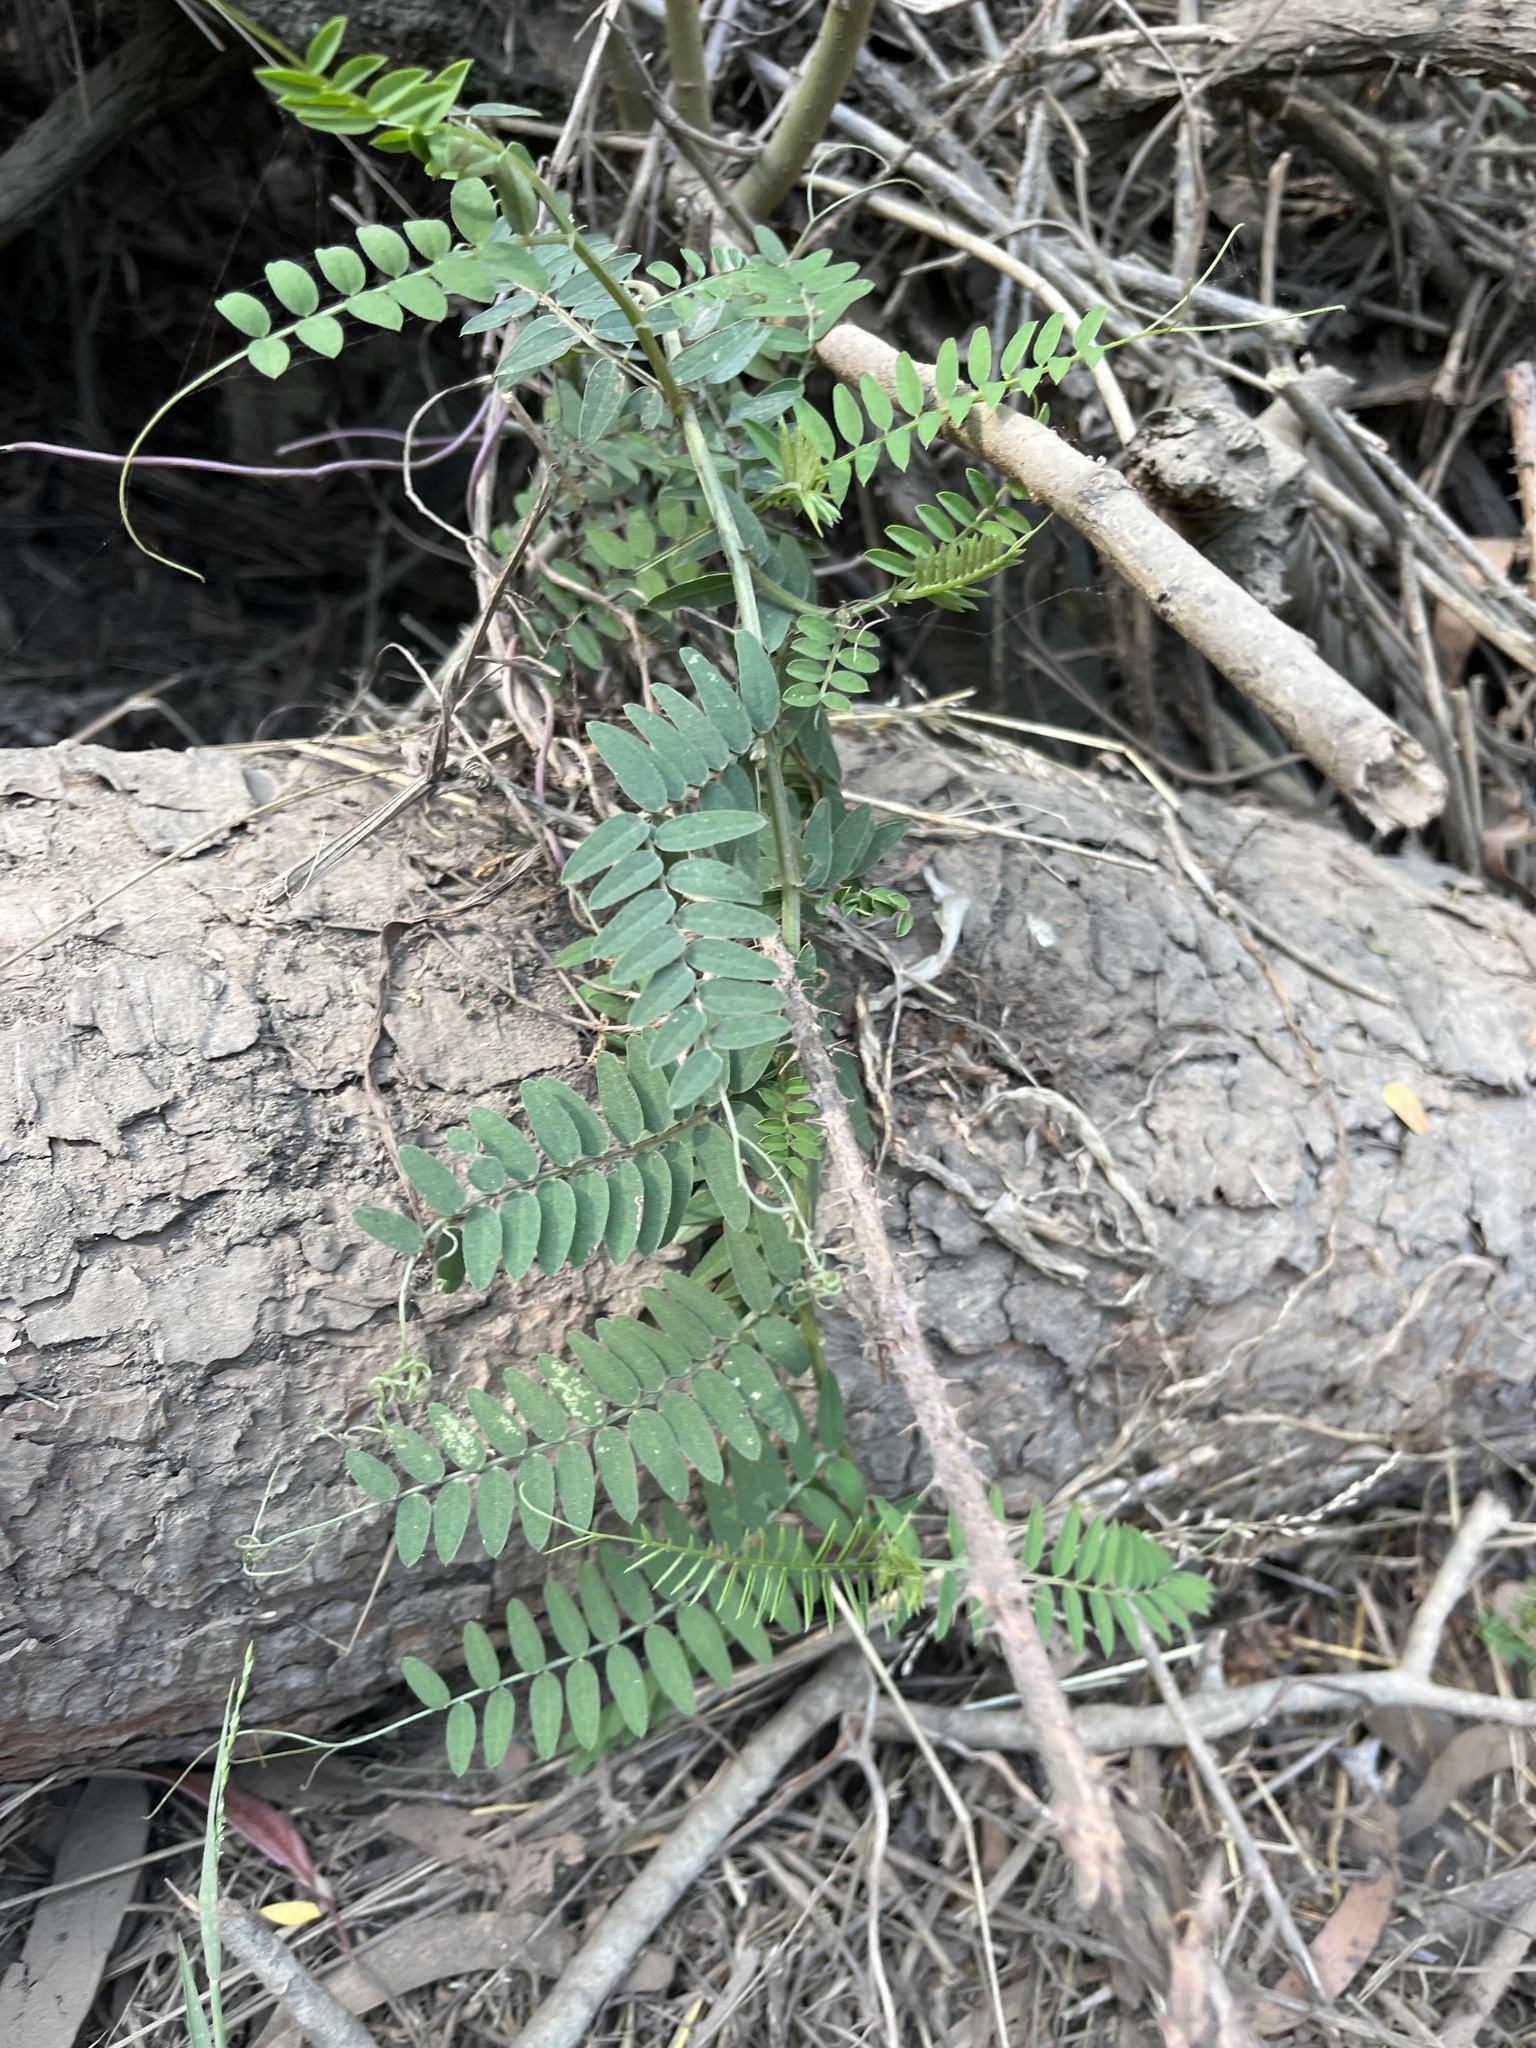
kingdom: Plantae
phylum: Tracheophyta
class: Magnoliopsida
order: Fabales
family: Fabaceae
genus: Vicia
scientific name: Vicia
